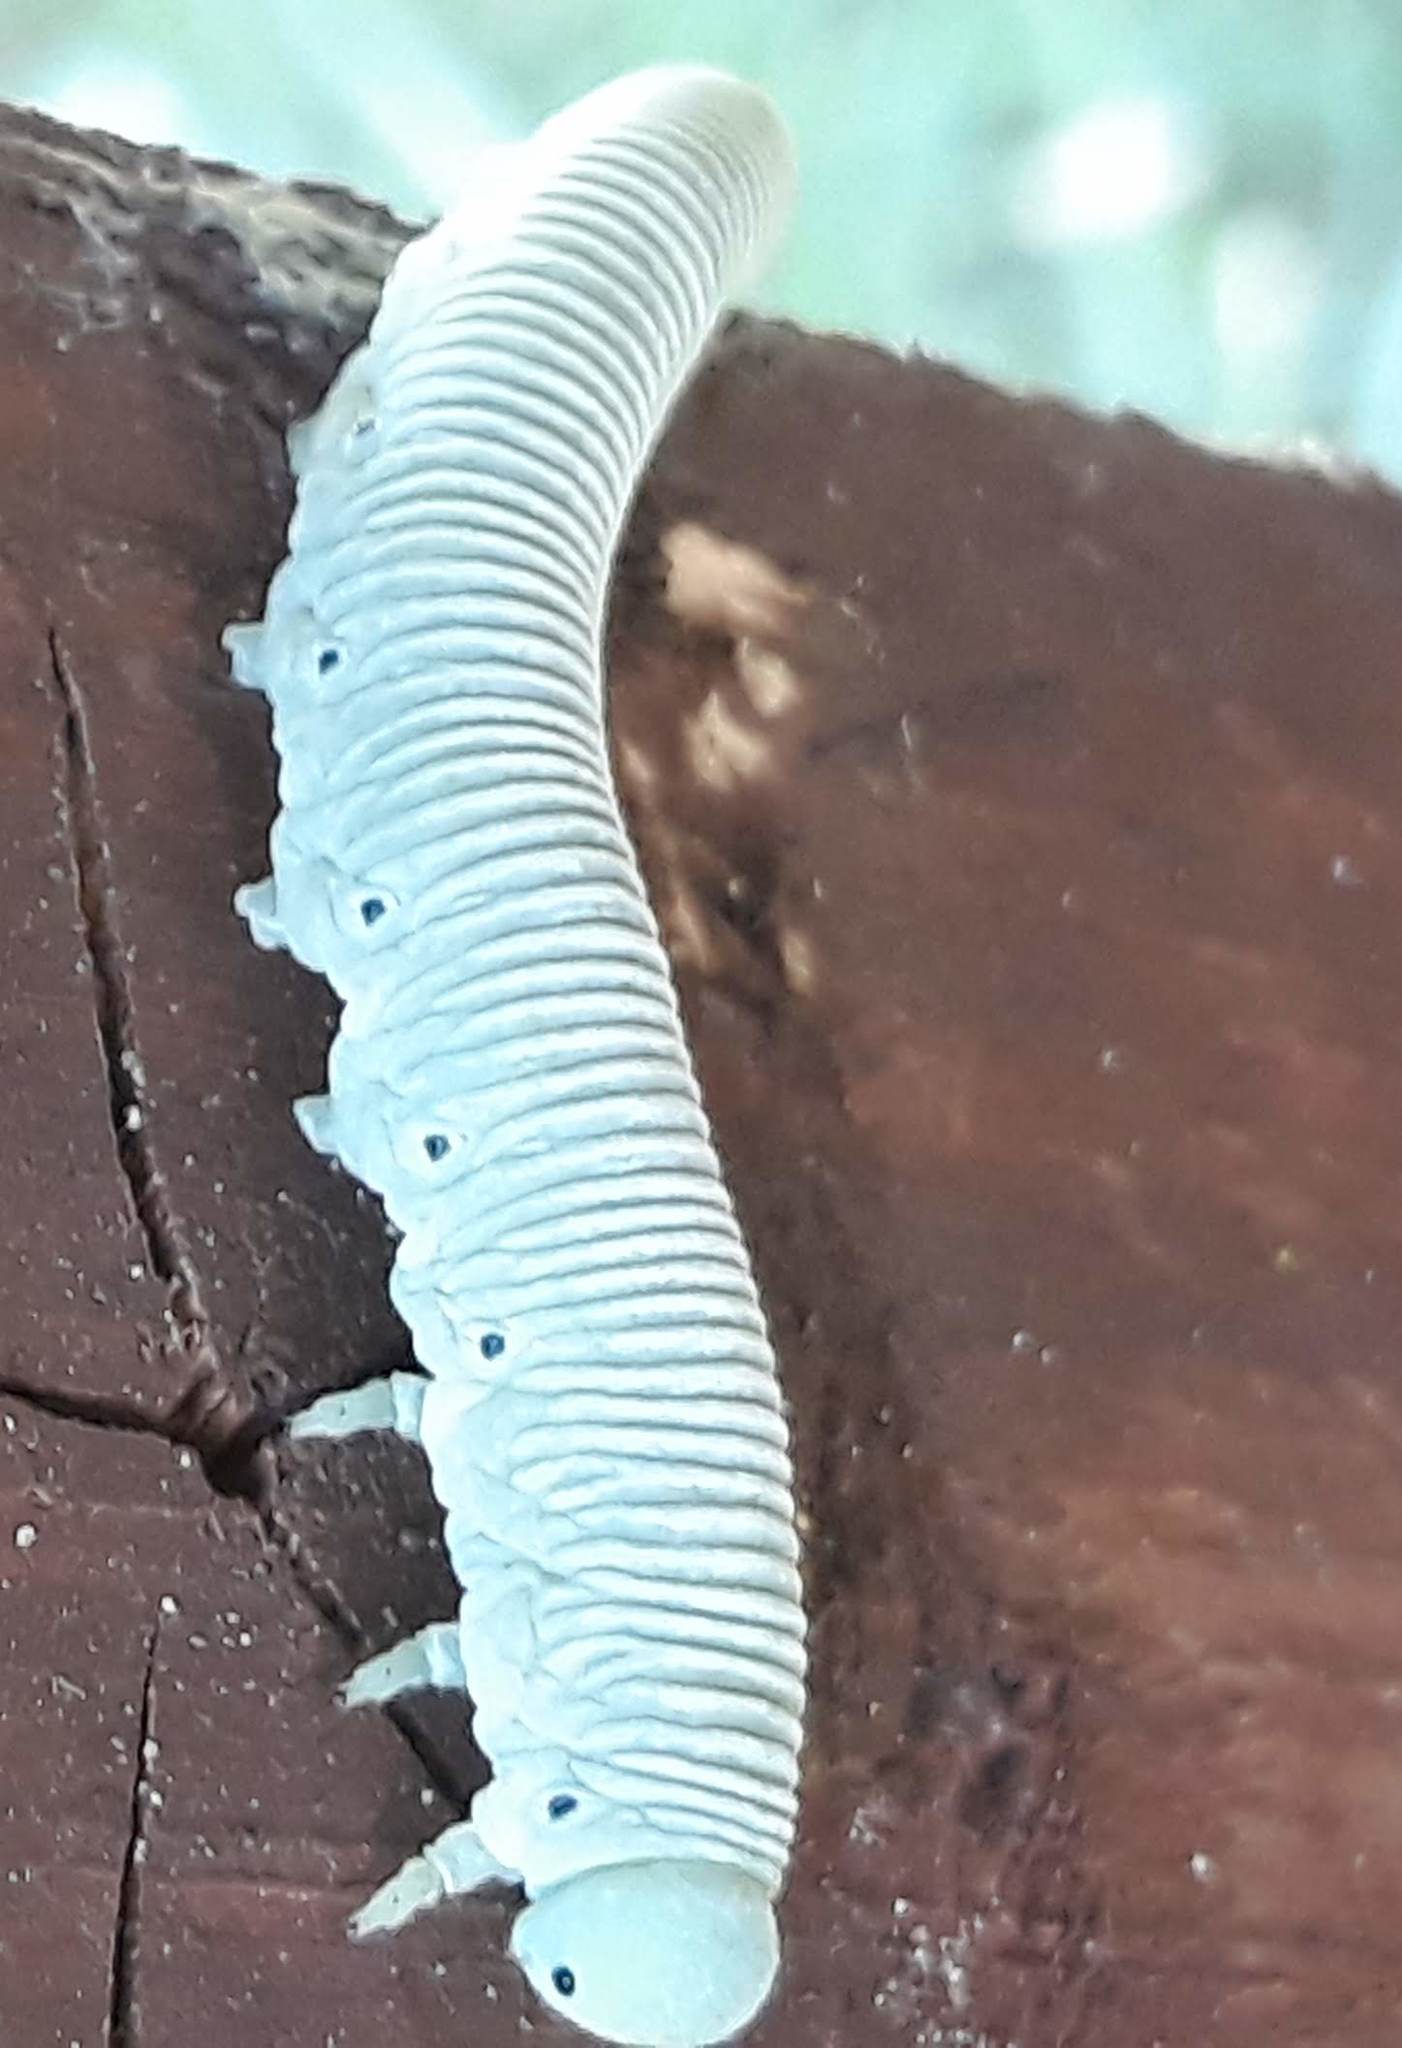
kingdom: Animalia
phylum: Arthropoda
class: Insecta
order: Hymenoptera
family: Cimbicidae
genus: Pseudoclavellaria
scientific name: Pseudoclavellaria amerinae
